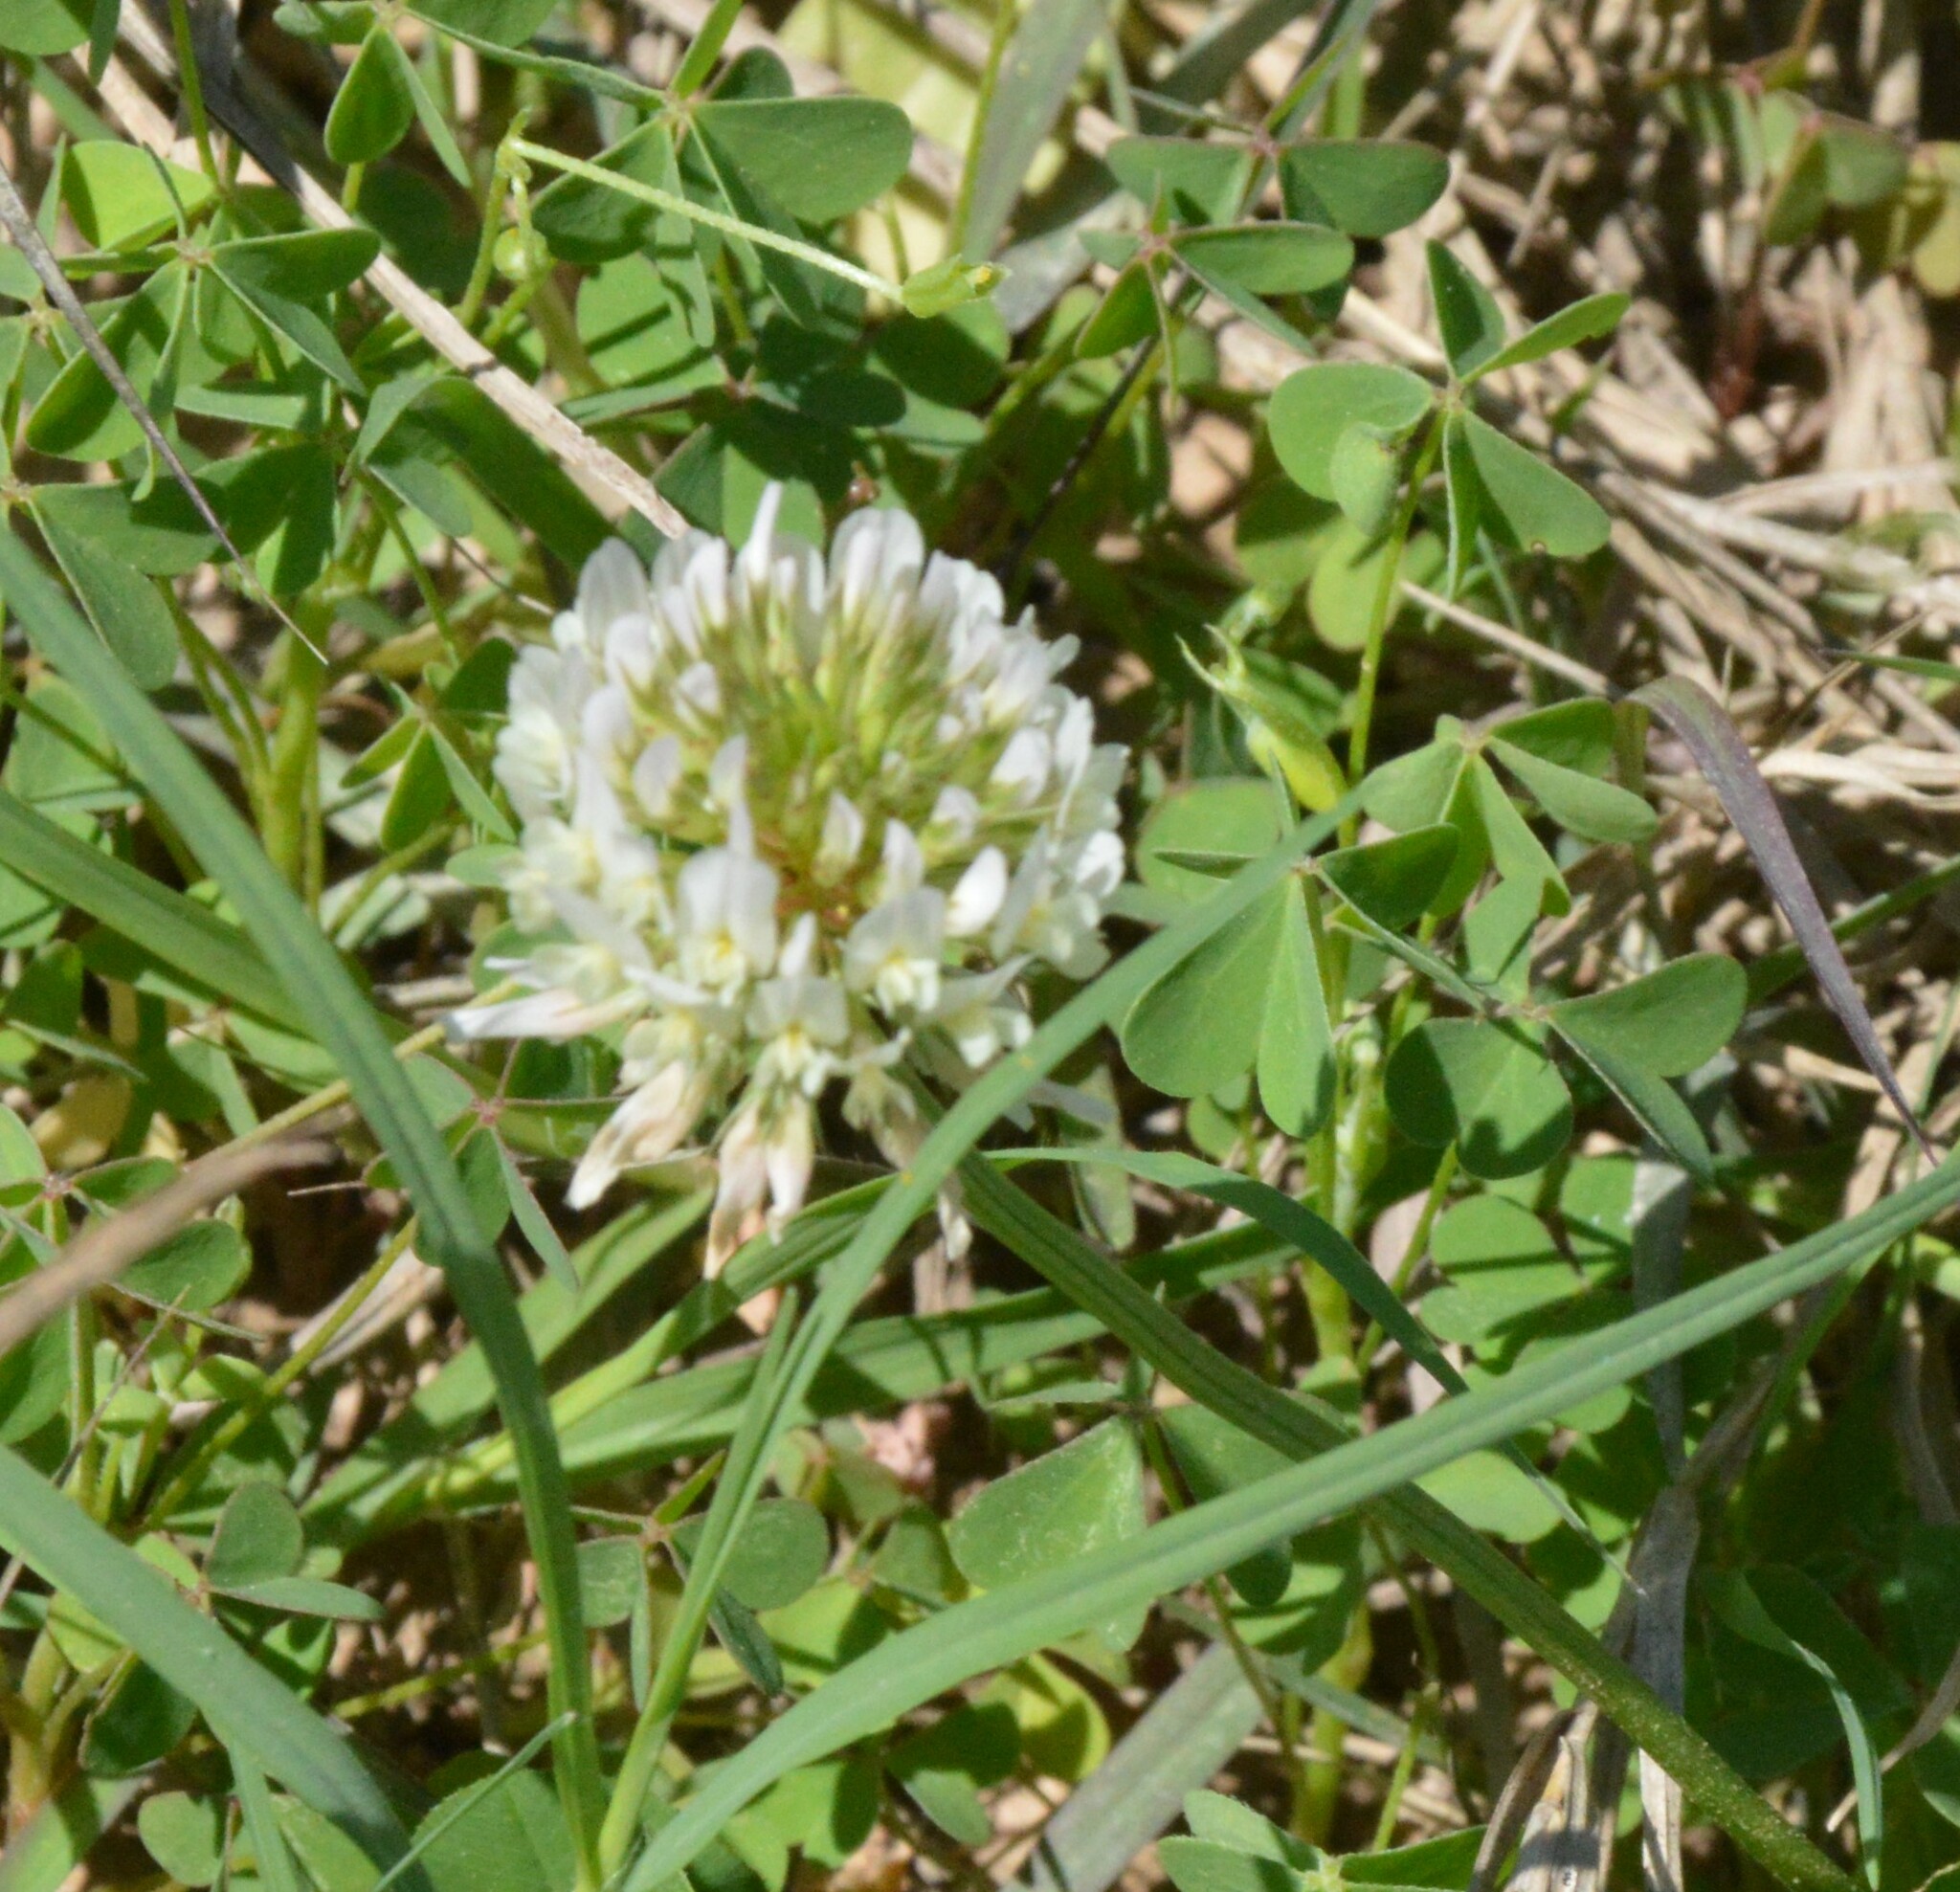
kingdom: Plantae
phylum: Tracheophyta
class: Magnoliopsida
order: Fabales
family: Fabaceae
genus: Trifolium
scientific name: Trifolium repens
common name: White clover
